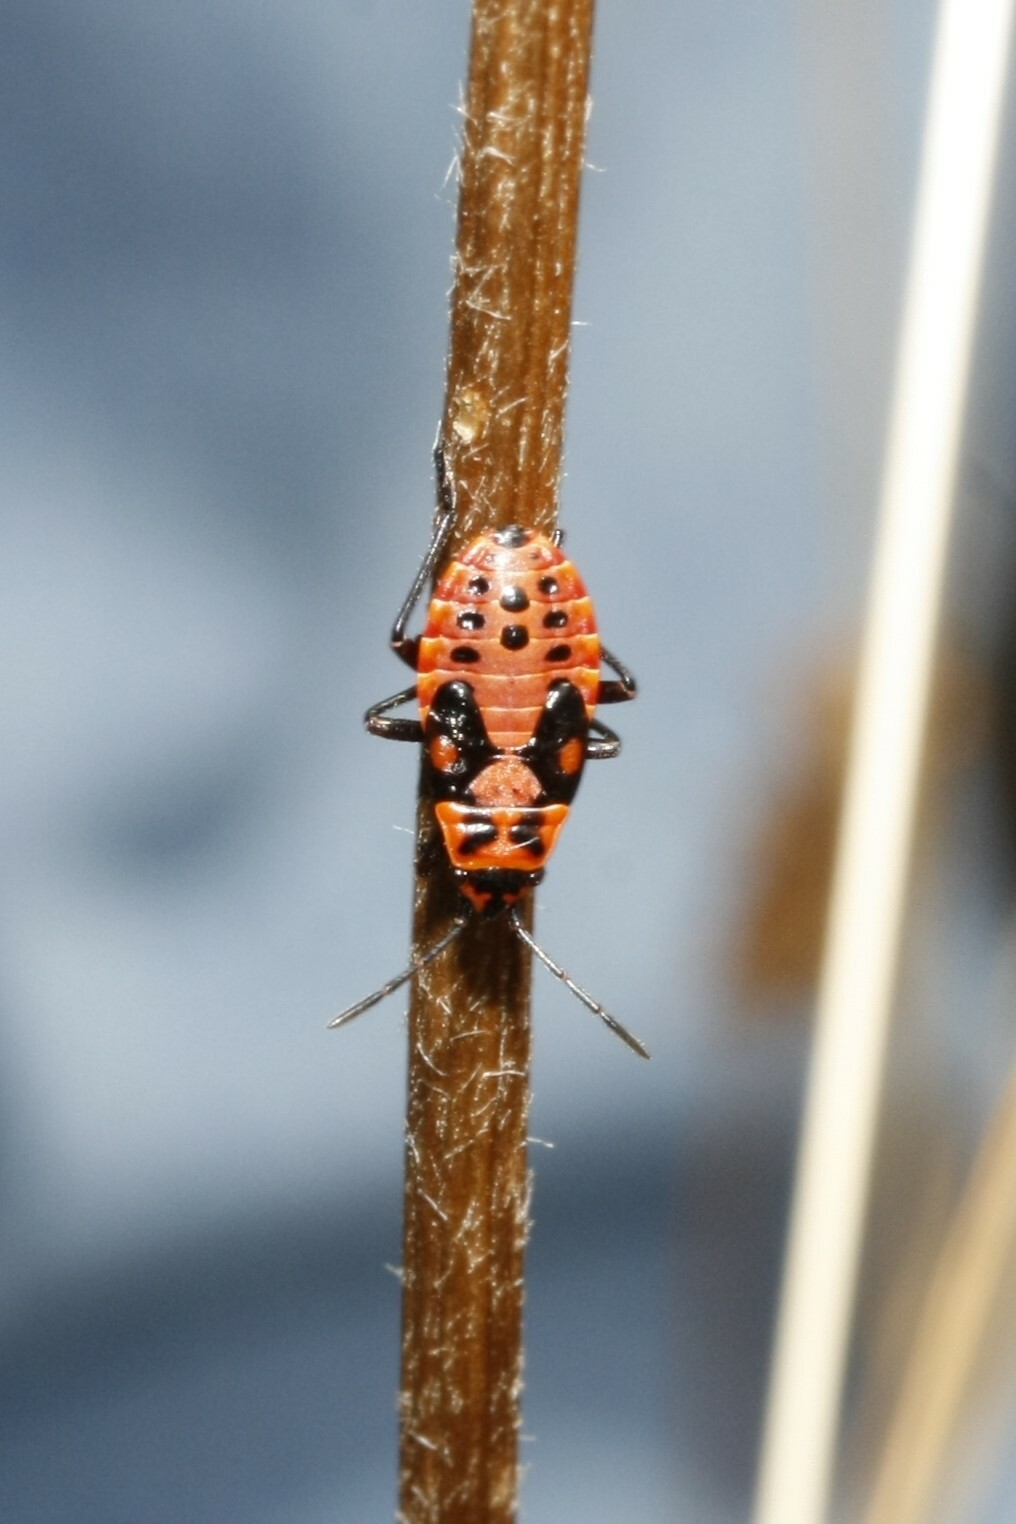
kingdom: Animalia
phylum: Arthropoda
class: Insecta
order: Hemiptera
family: Lygaeidae
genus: Spilostethus
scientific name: Spilostethus saxatilis
